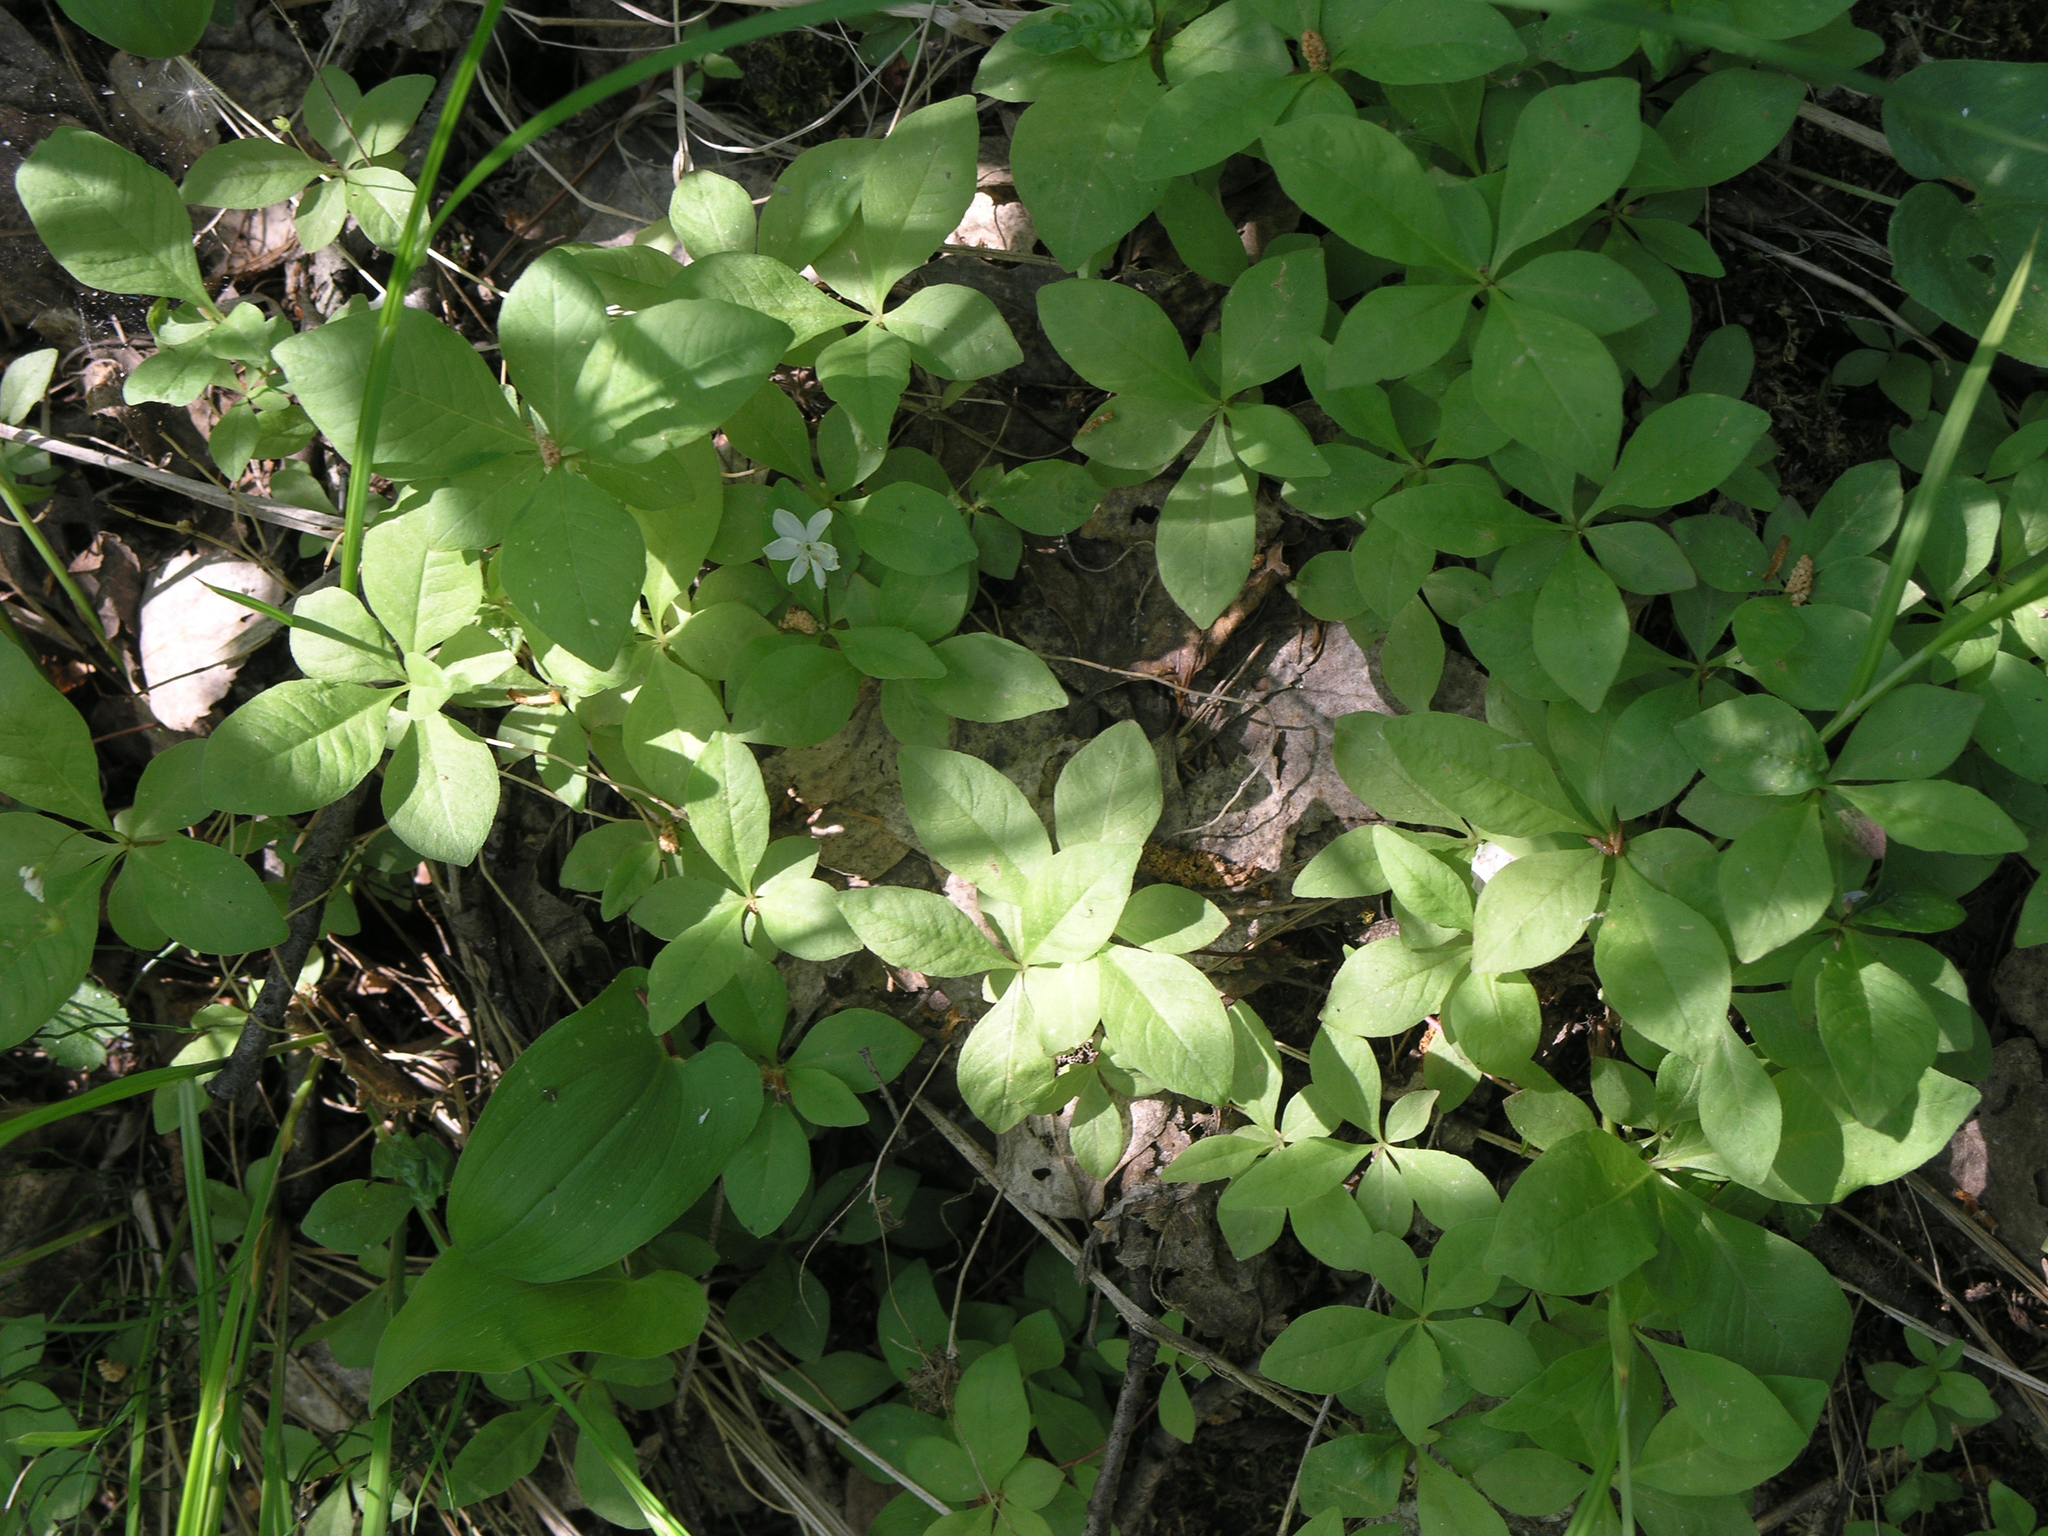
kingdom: Plantae
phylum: Tracheophyta
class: Magnoliopsida
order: Ericales
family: Primulaceae
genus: Lysimachia
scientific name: Lysimachia europaea
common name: Arctic starflower
